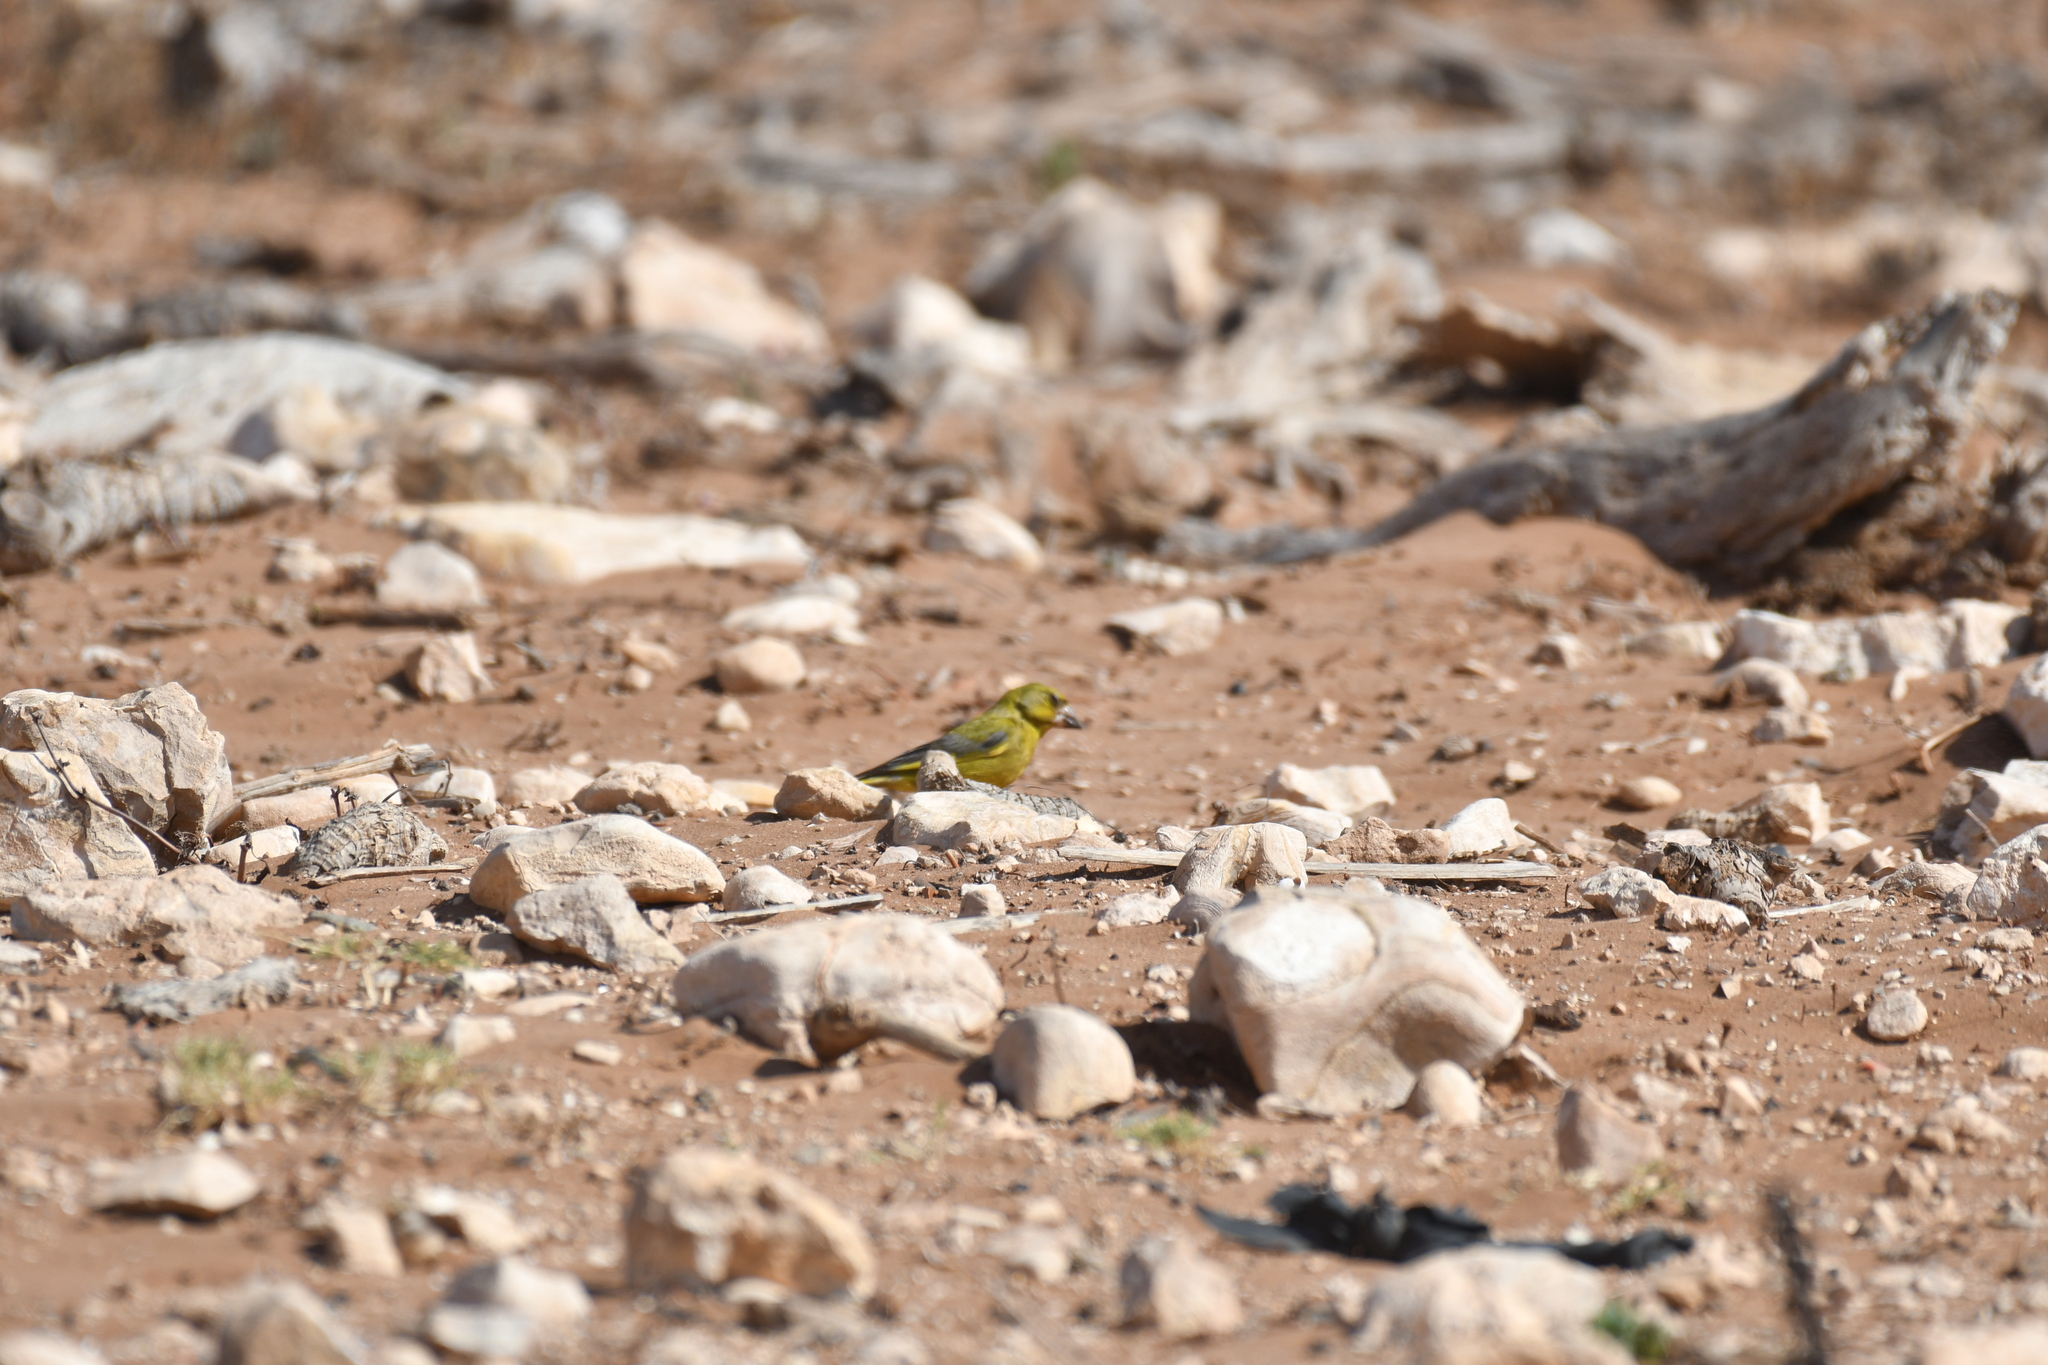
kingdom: Plantae
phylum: Tracheophyta
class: Liliopsida
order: Poales
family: Poaceae
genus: Chloris
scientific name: Chloris chloris
